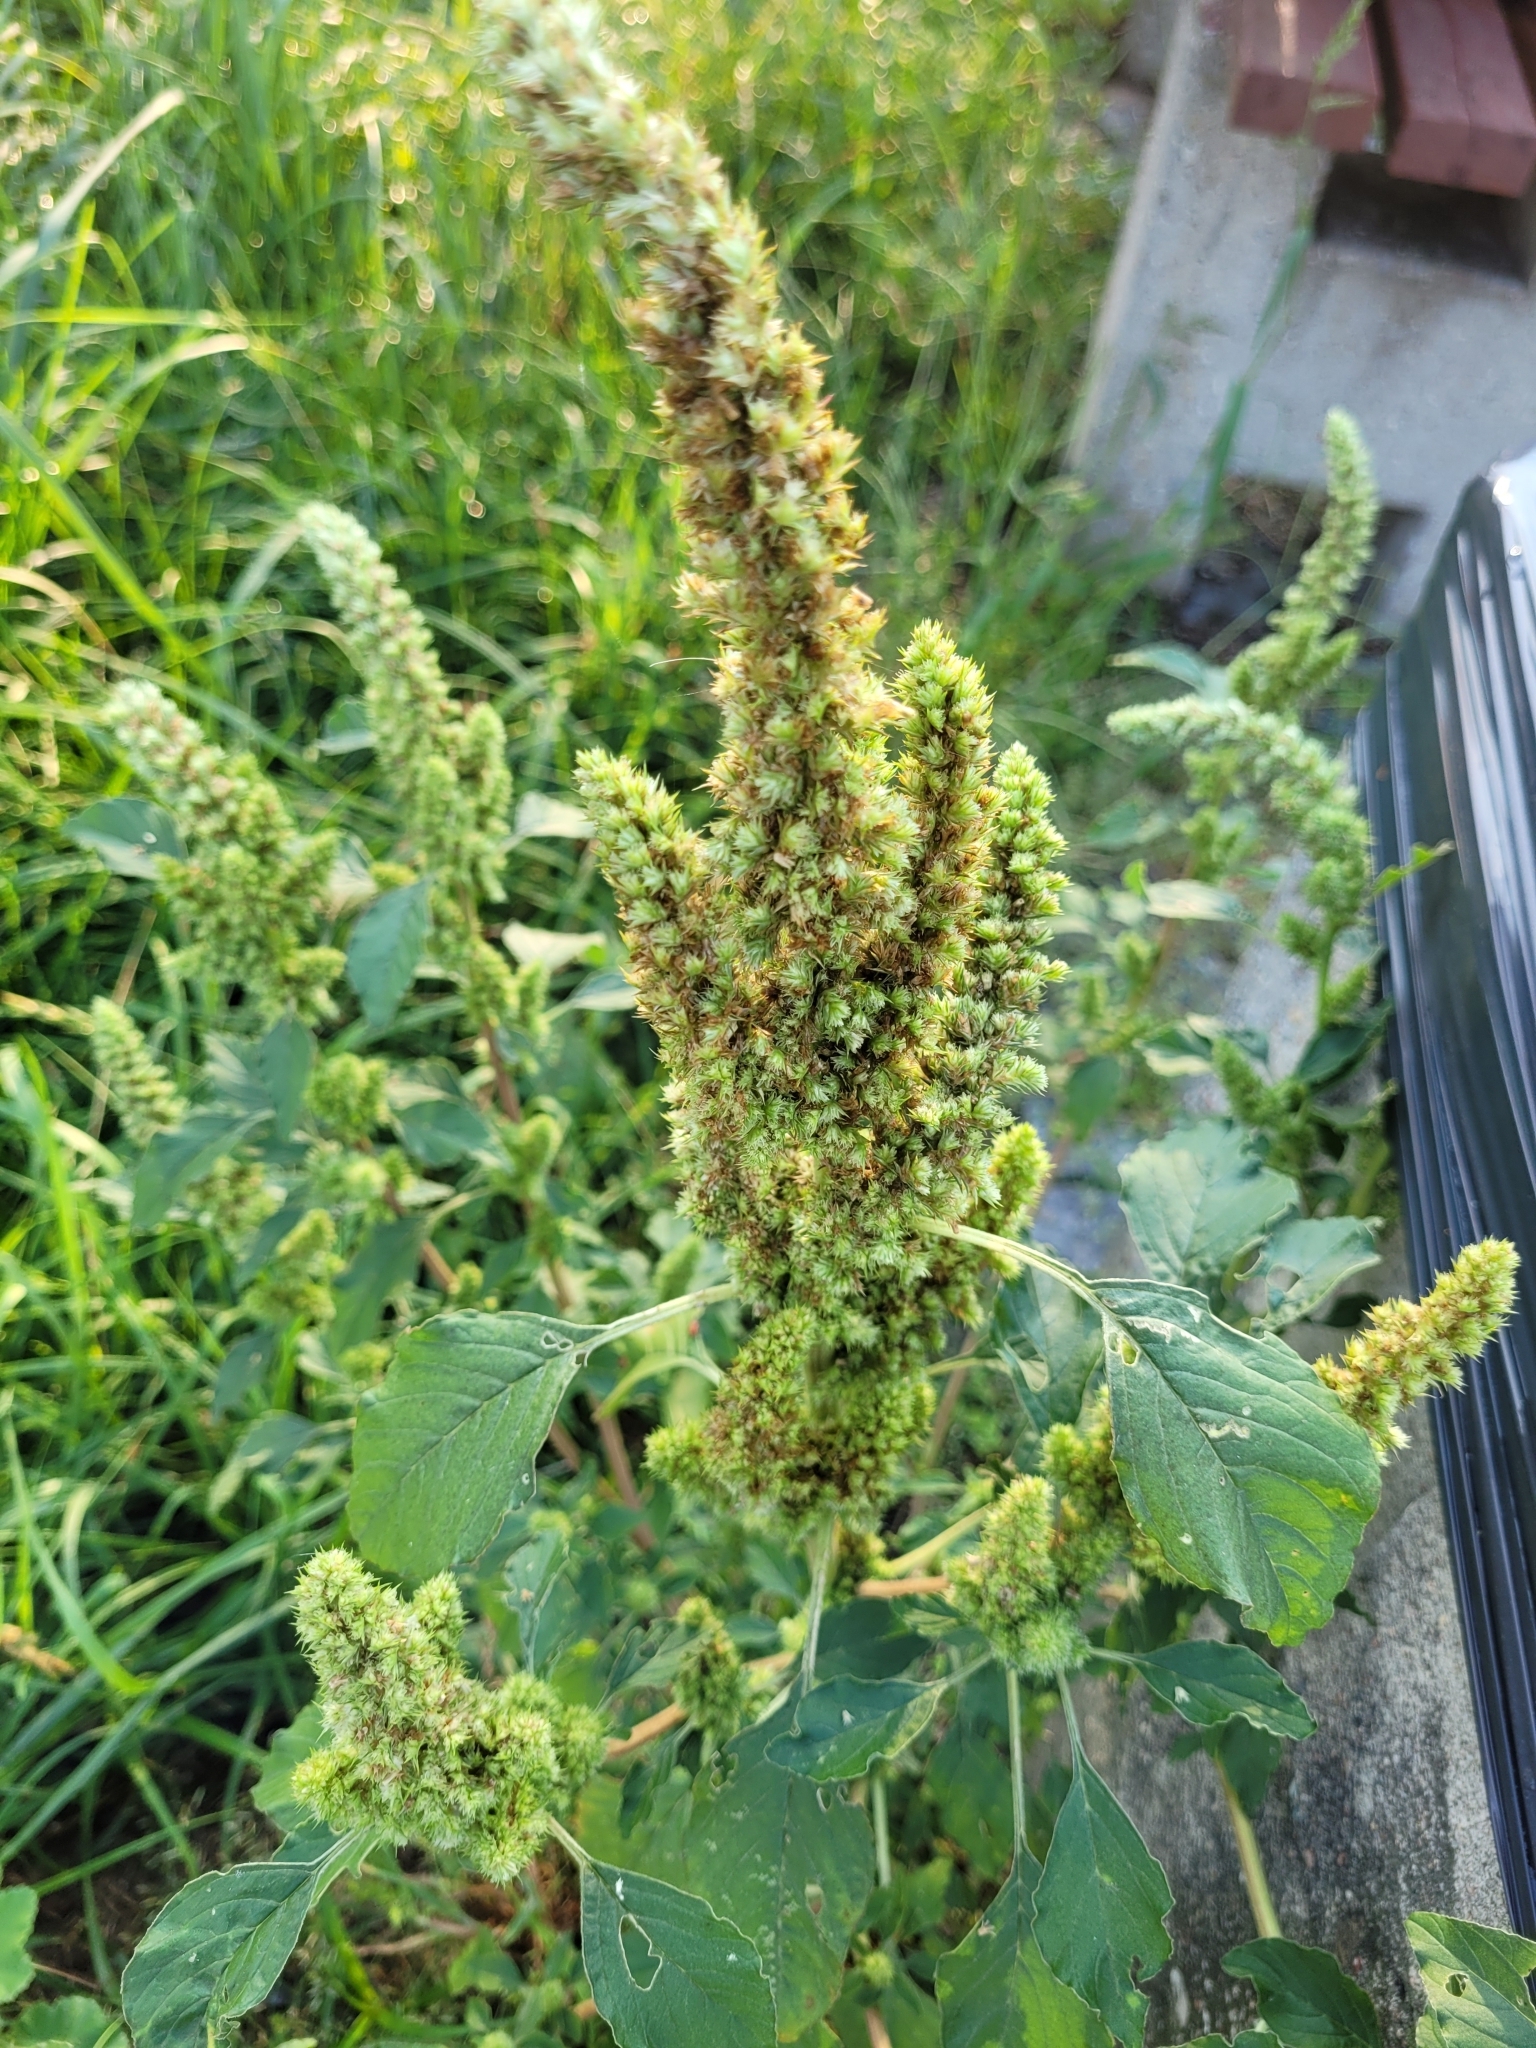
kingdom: Plantae
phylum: Tracheophyta
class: Magnoliopsida
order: Caryophyllales
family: Amaranthaceae
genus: Amaranthus
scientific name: Amaranthus retroflexus
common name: Redroot amaranth
